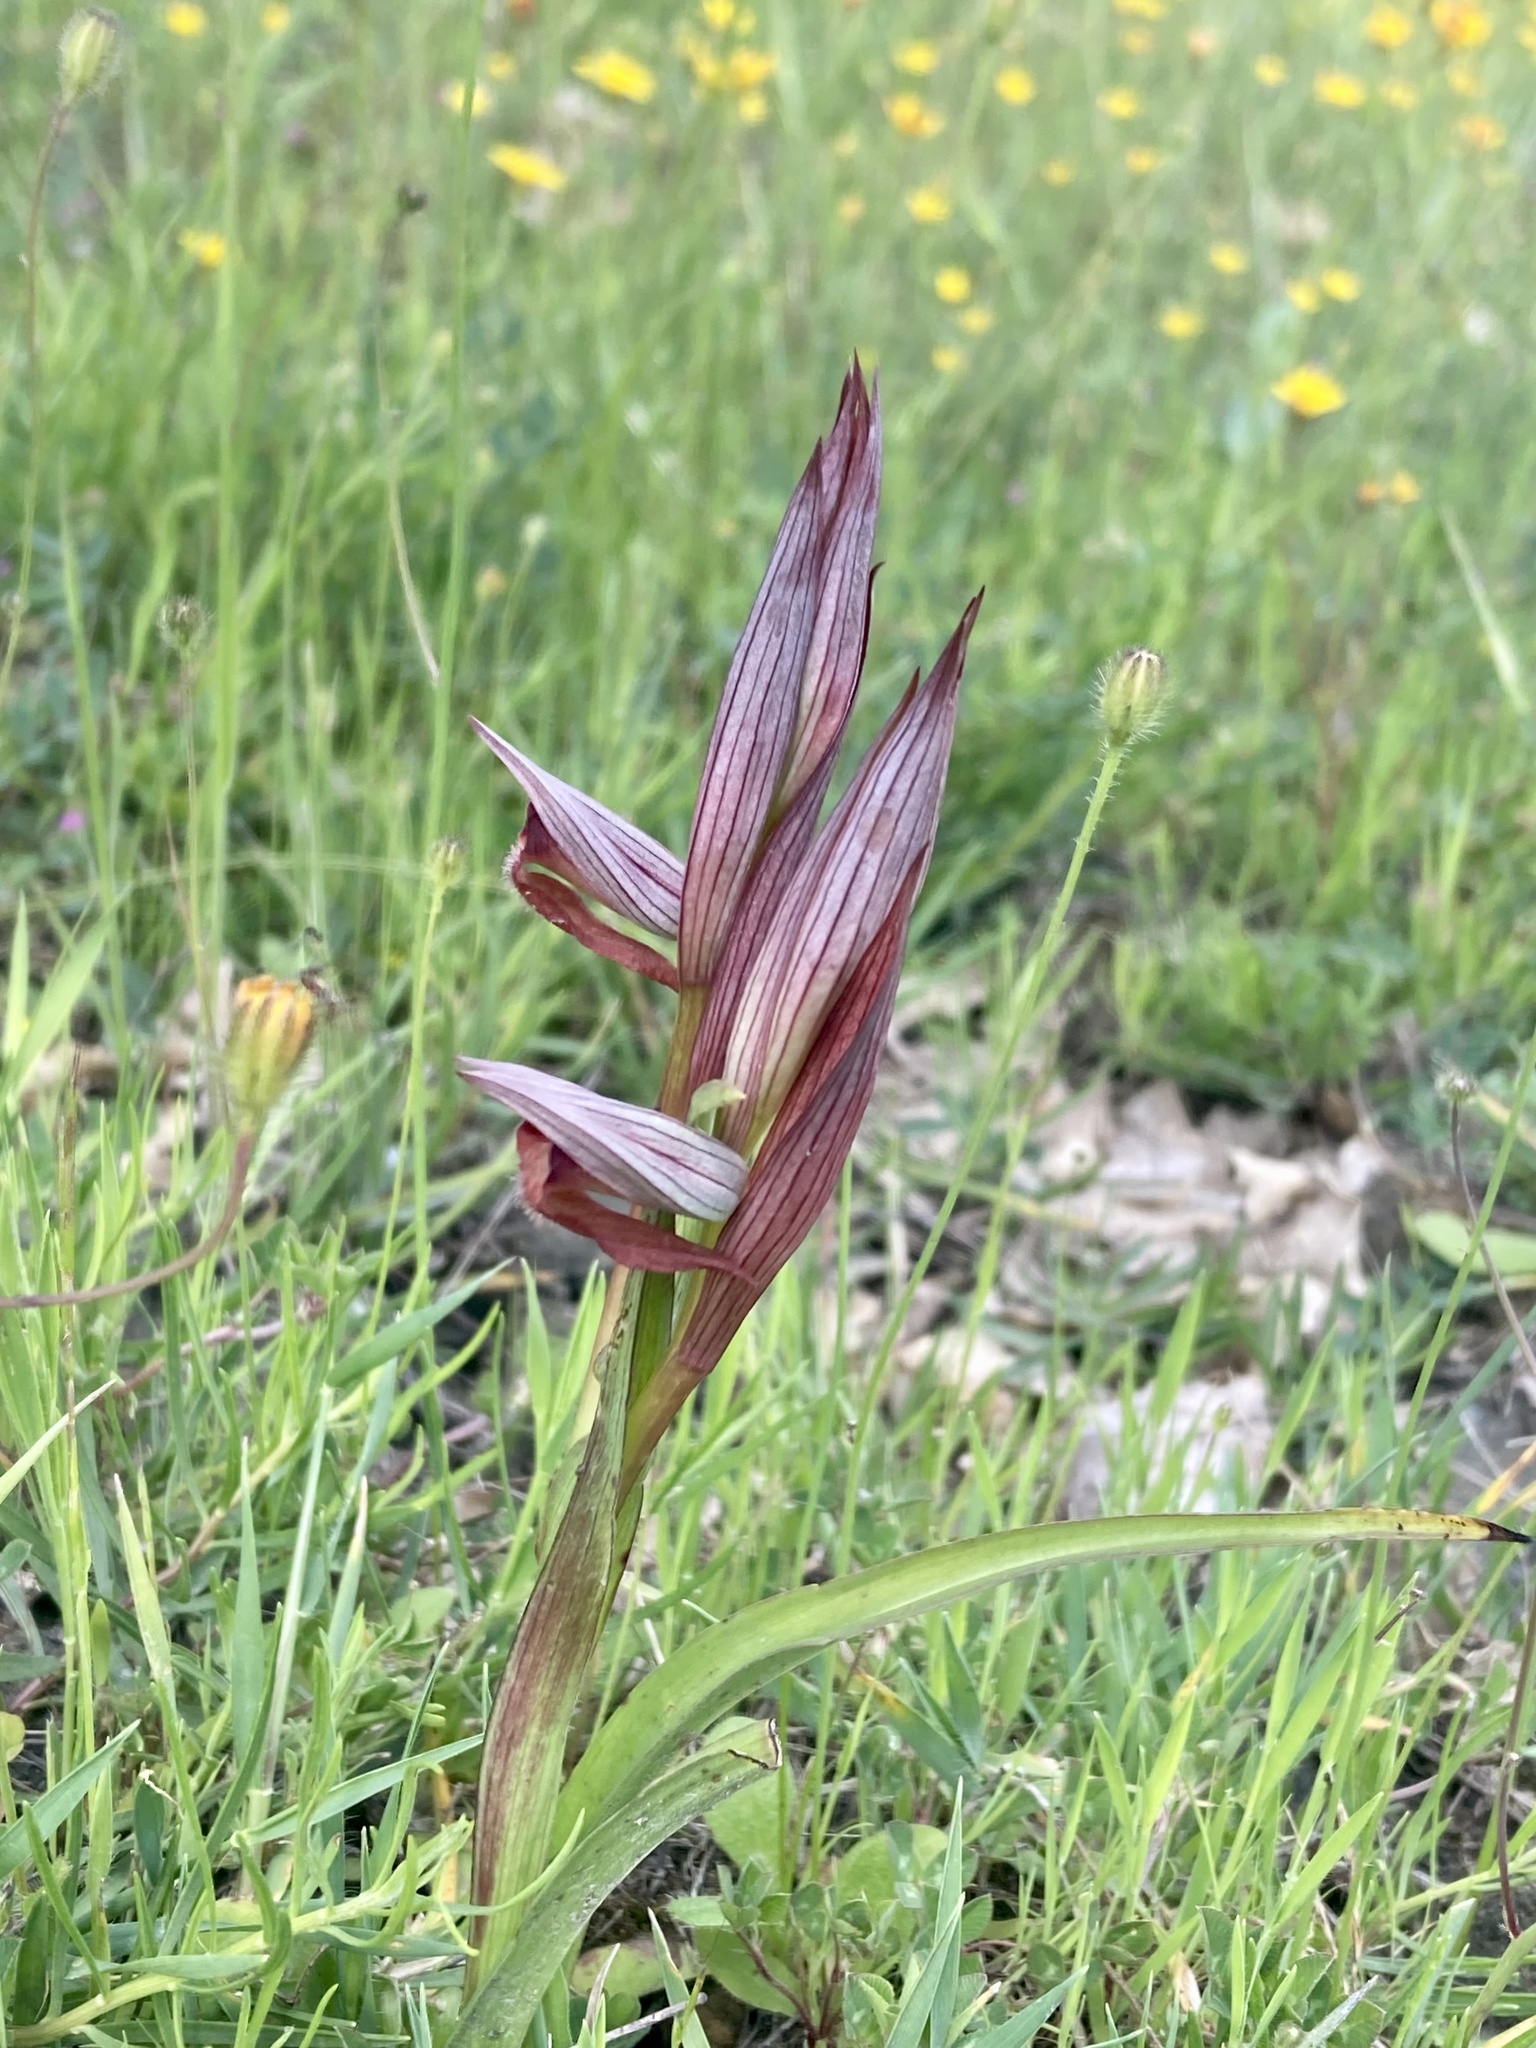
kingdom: Plantae
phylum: Tracheophyta
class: Liliopsida
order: Asparagales
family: Orchidaceae
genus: Serapias
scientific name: Serapias vomeracea
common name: Long-lipped tongue-orchid
